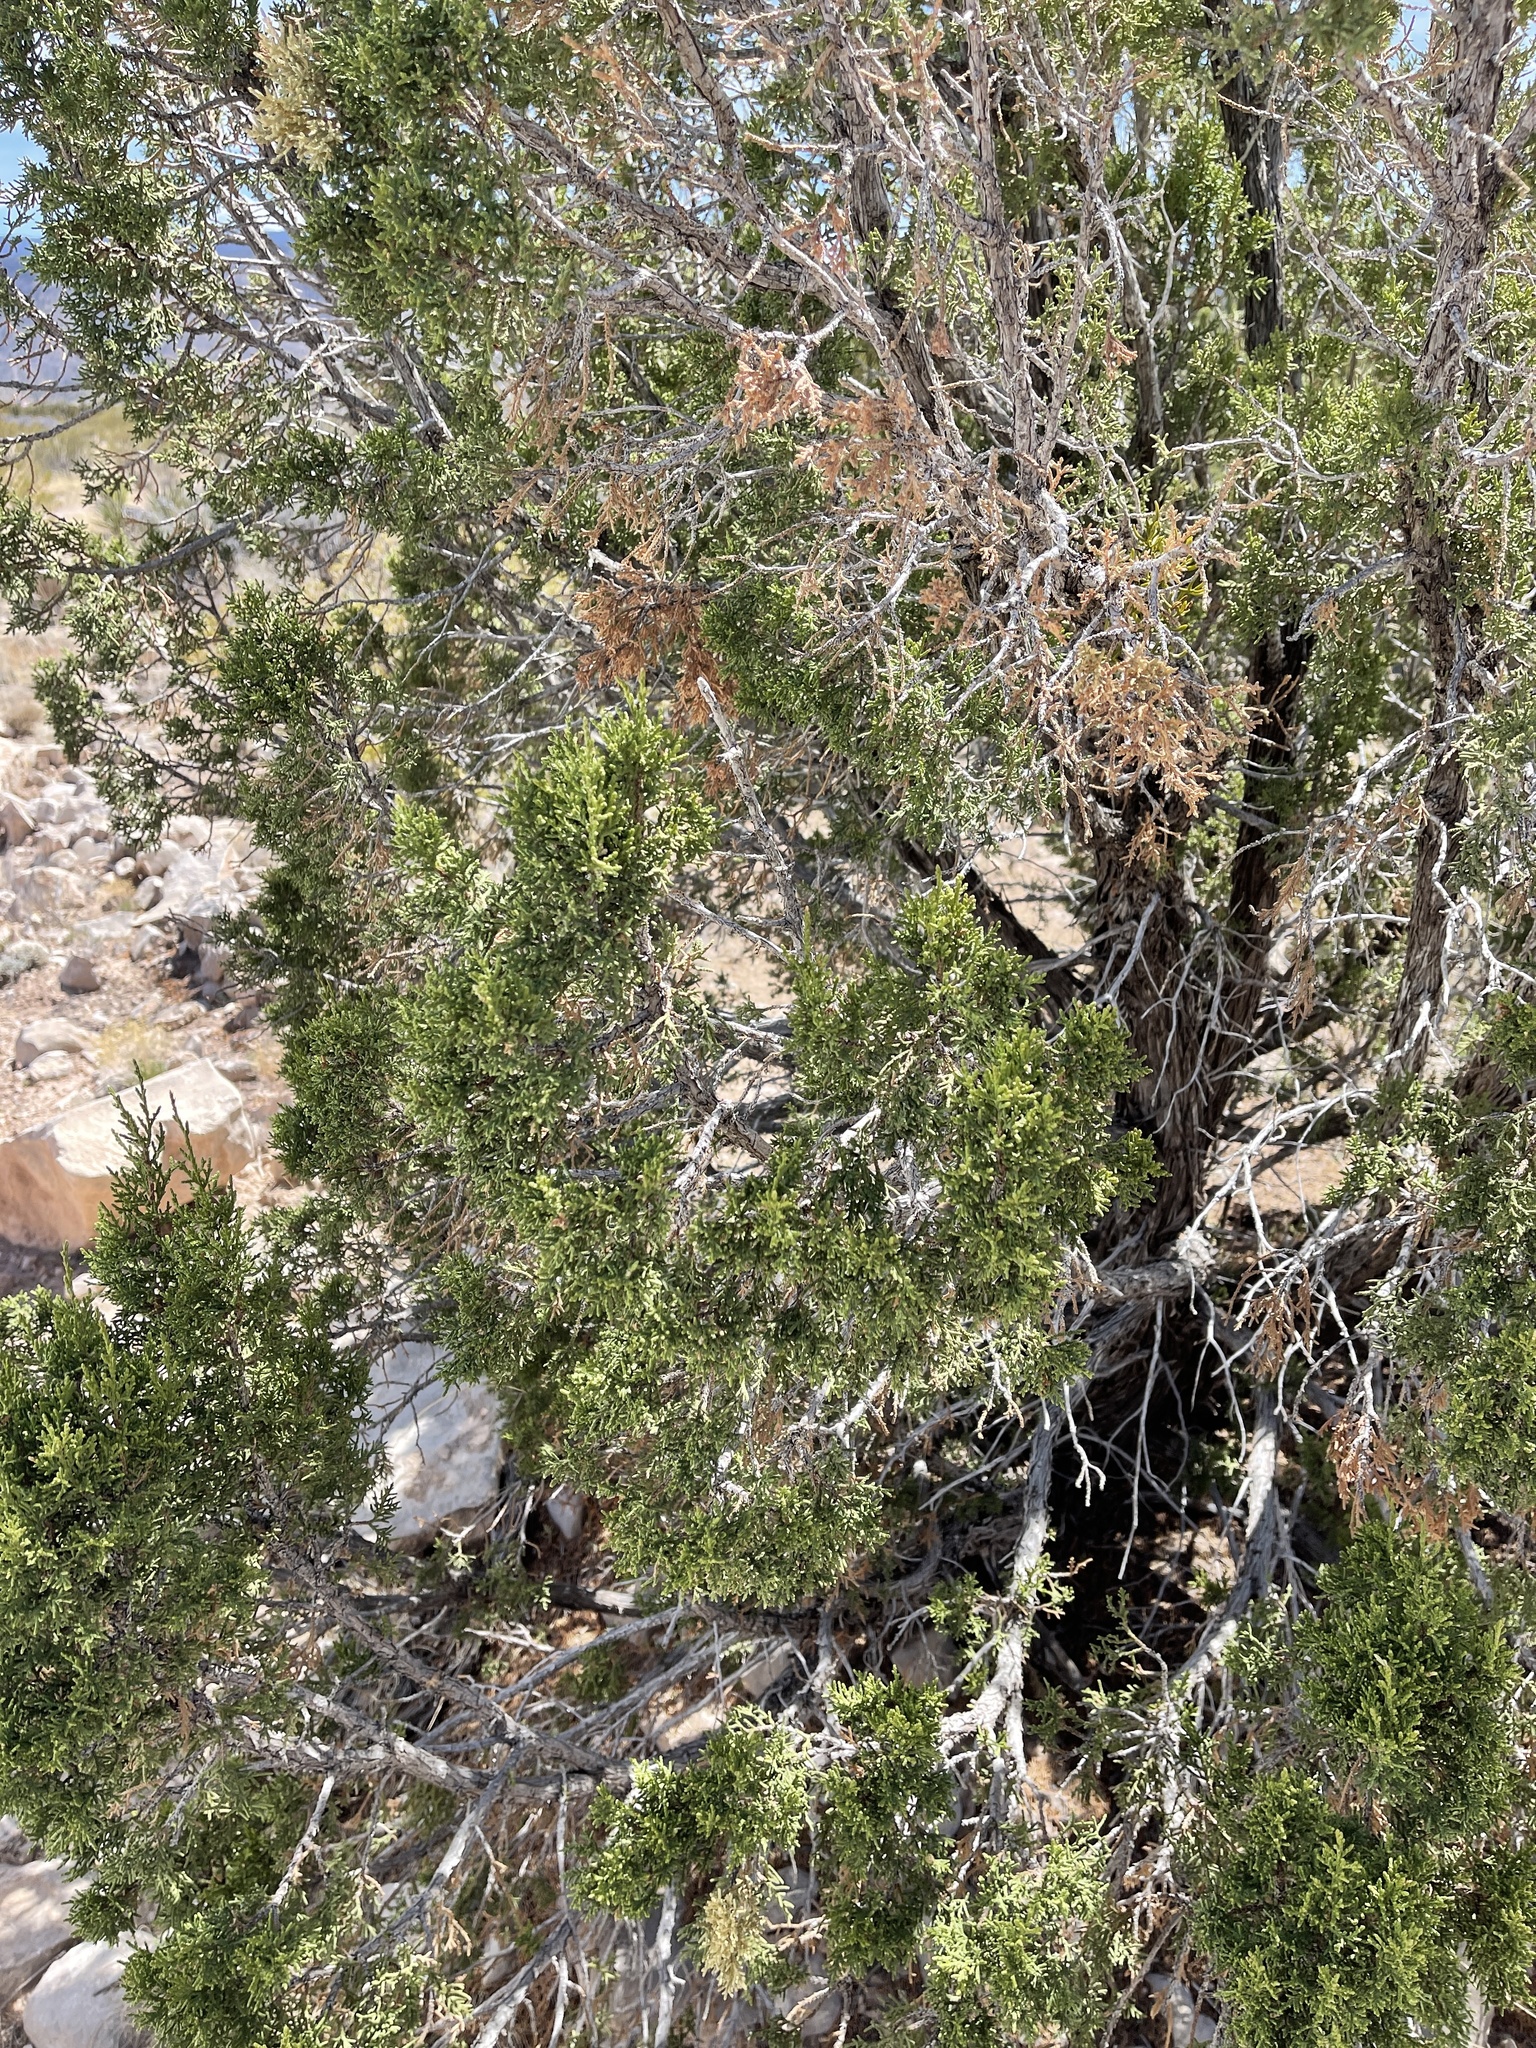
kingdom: Plantae
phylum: Tracheophyta
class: Pinopsida
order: Pinales
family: Cupressaceae
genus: Juniperus
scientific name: Juniperus monosperma
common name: One-seed juniper
